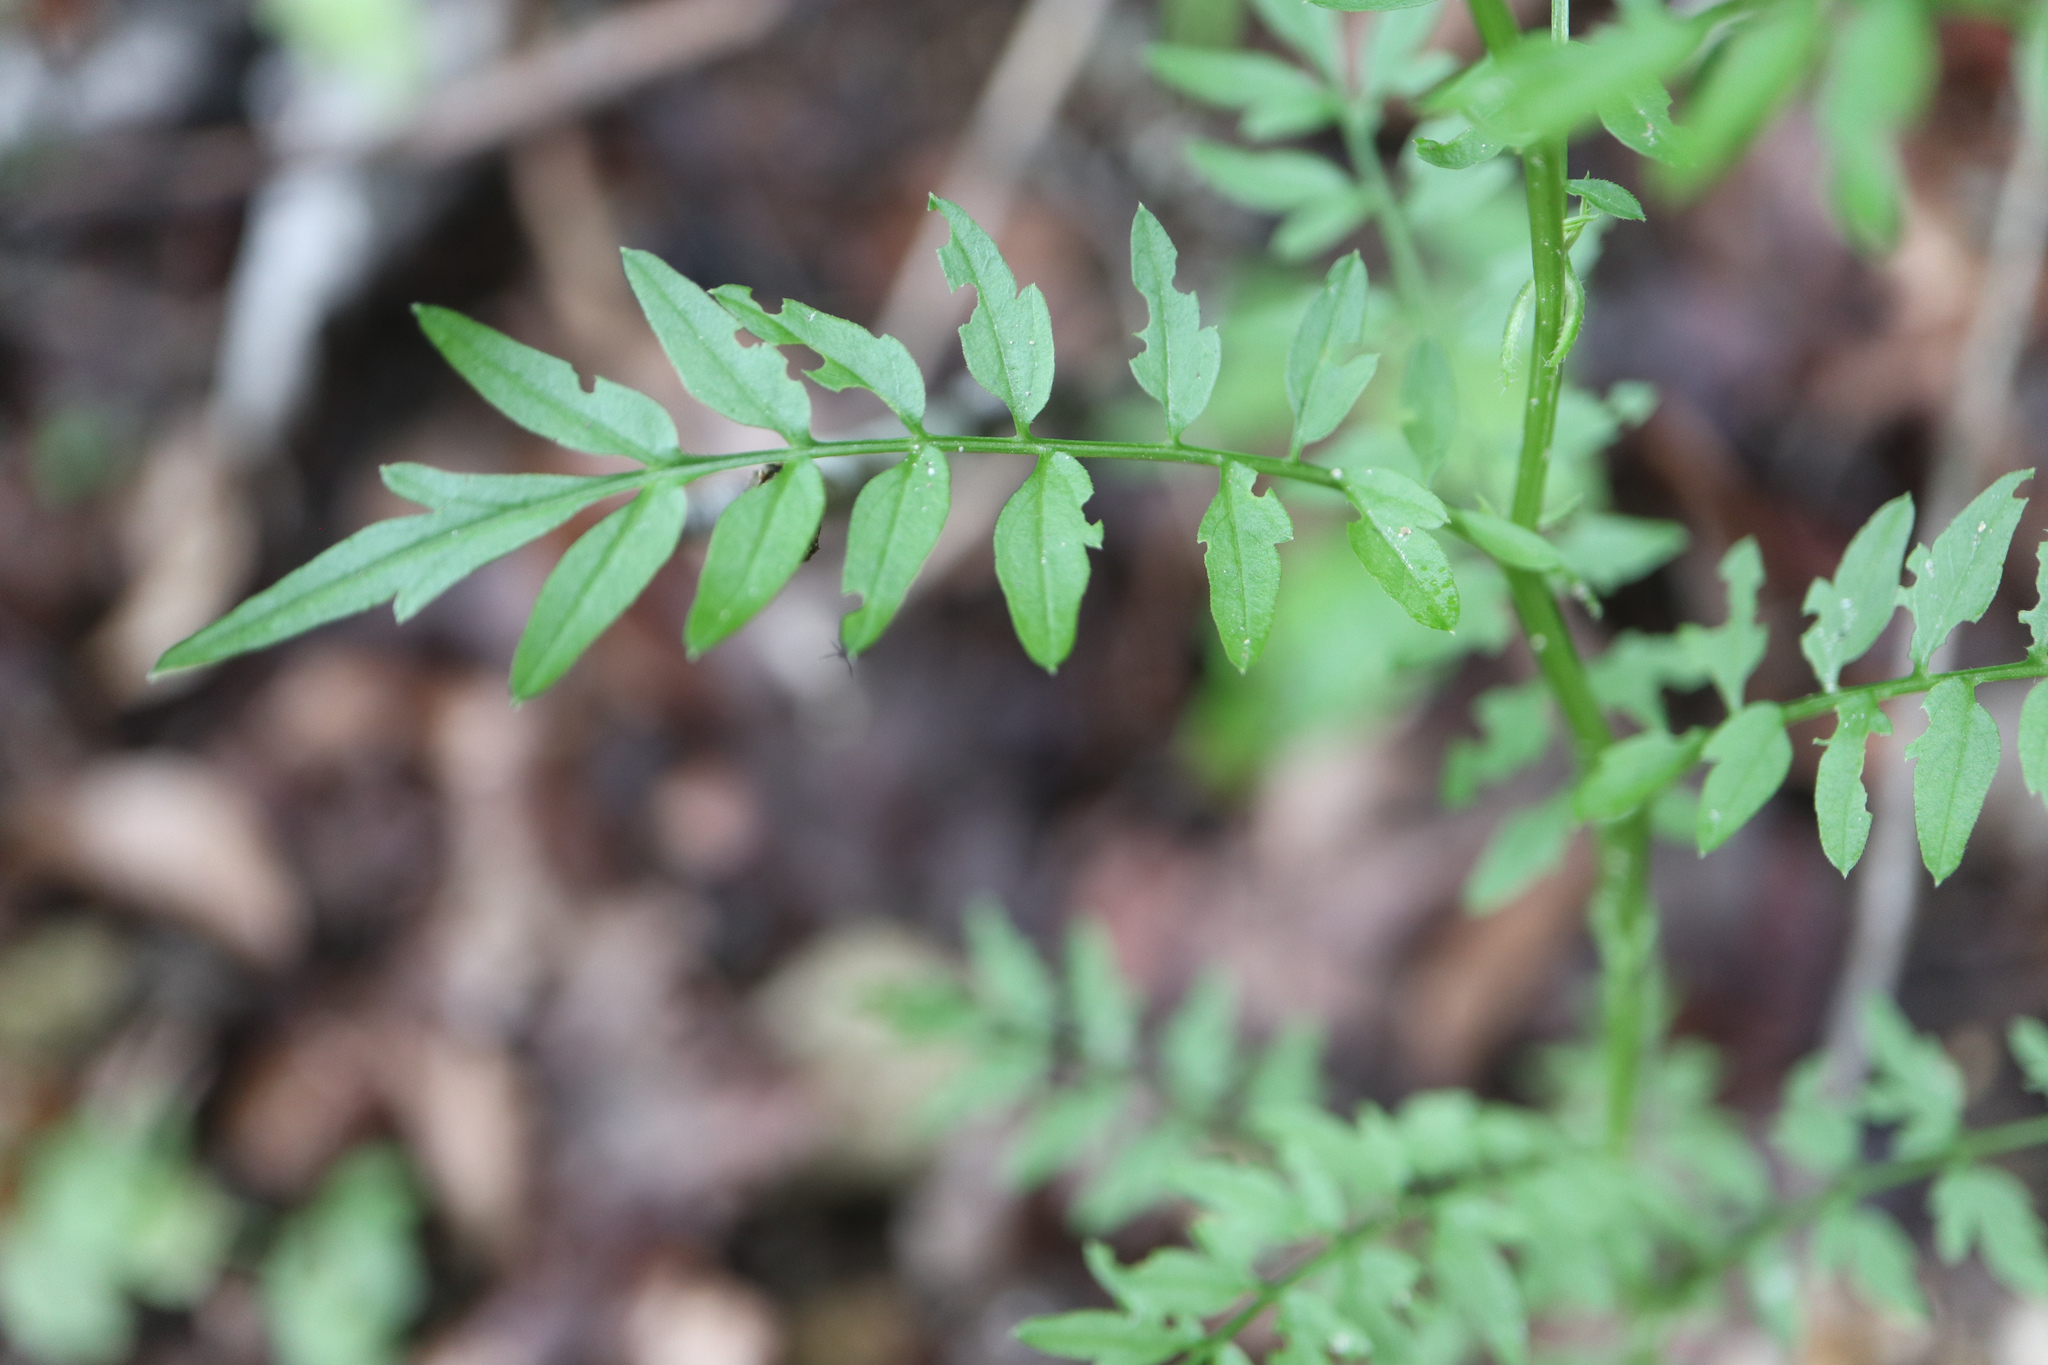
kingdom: Plantae
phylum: Tracheophyta
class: Magnoliopsida
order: Brassicales
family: Brassicaceae
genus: Cardamine
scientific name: Cardamine impatiens
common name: Narrow-leaved bitter-cress
